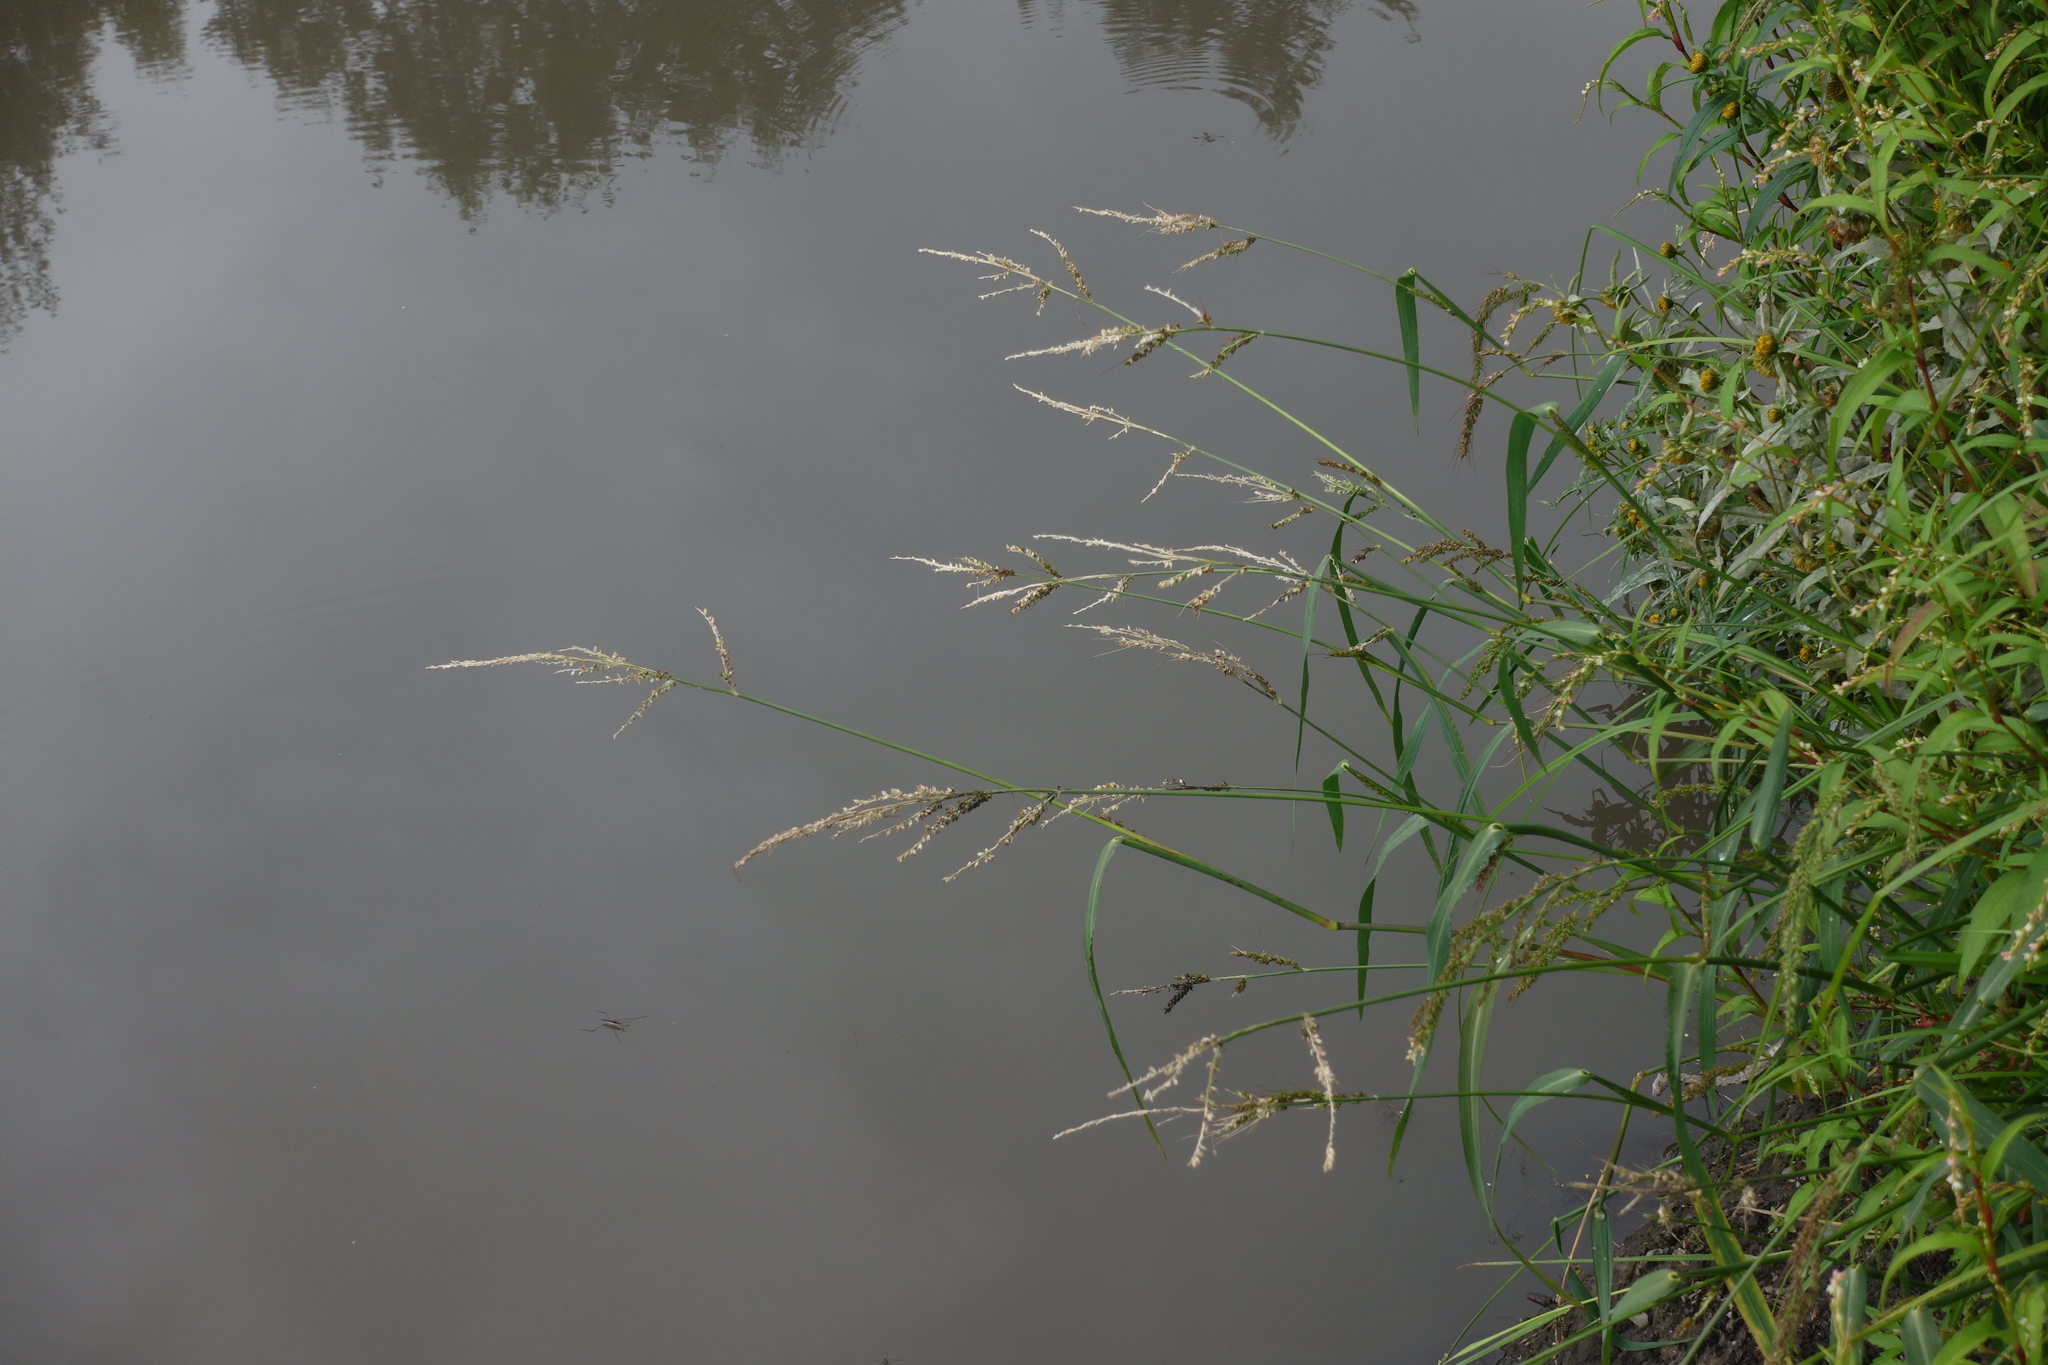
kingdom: Plantae
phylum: Tracheophyta
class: Liliopsida
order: Poales
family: Poaceae
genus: Echinochloa
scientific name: Echinochloa crus-galli
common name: Cockspur
